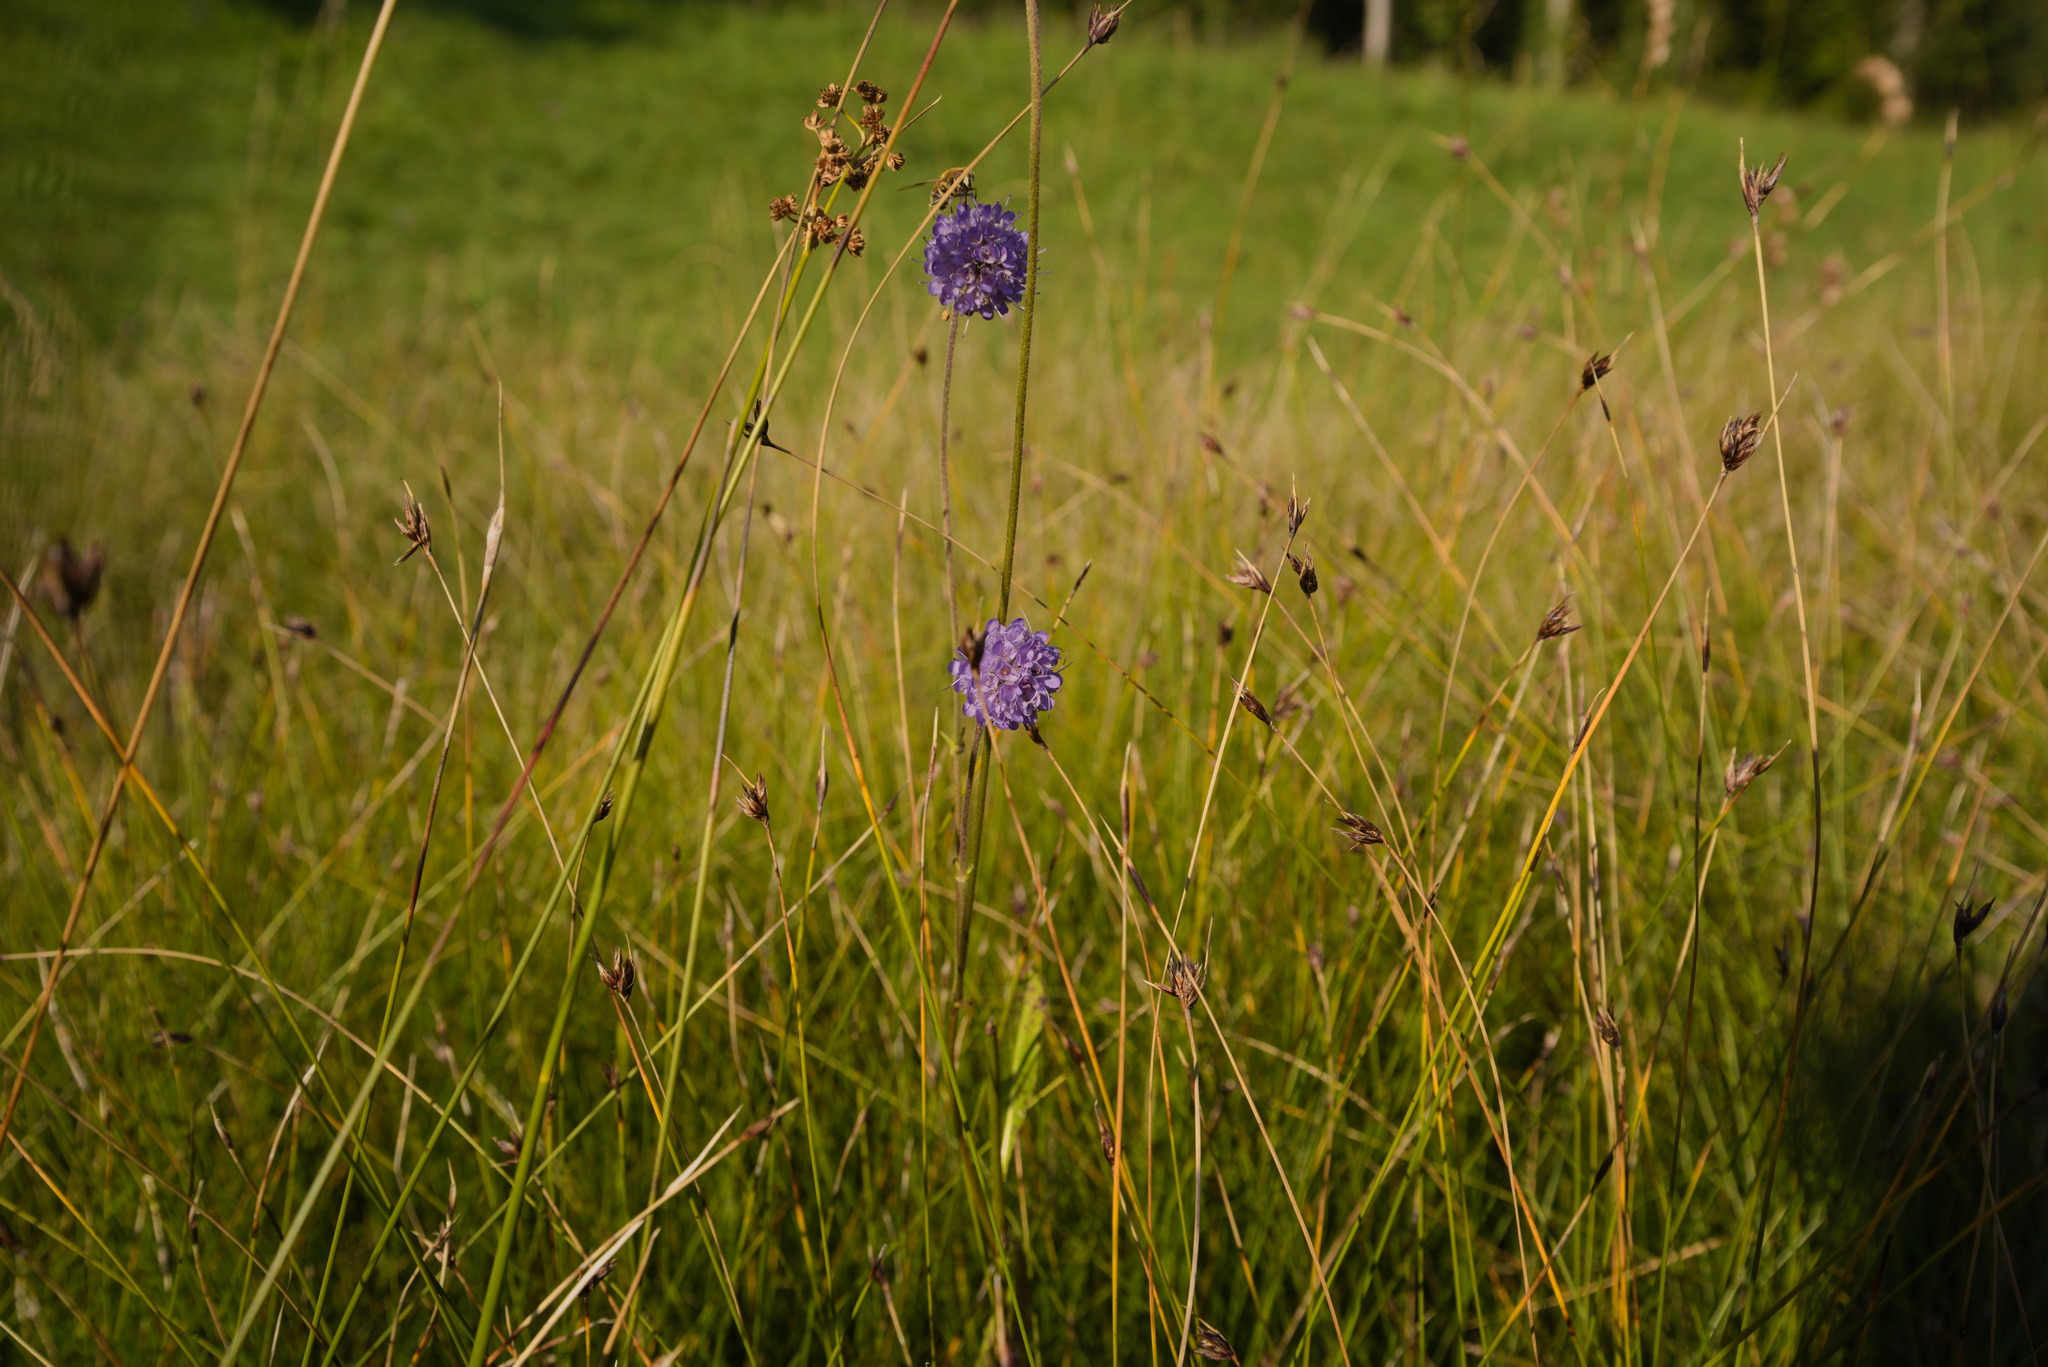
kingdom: Plantae
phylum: Tracheophyta
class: Magnoliopsida
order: Dipsacales
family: Caprifoliaceae
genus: Succisa
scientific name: Succisa pratensis
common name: Devil's-bit
